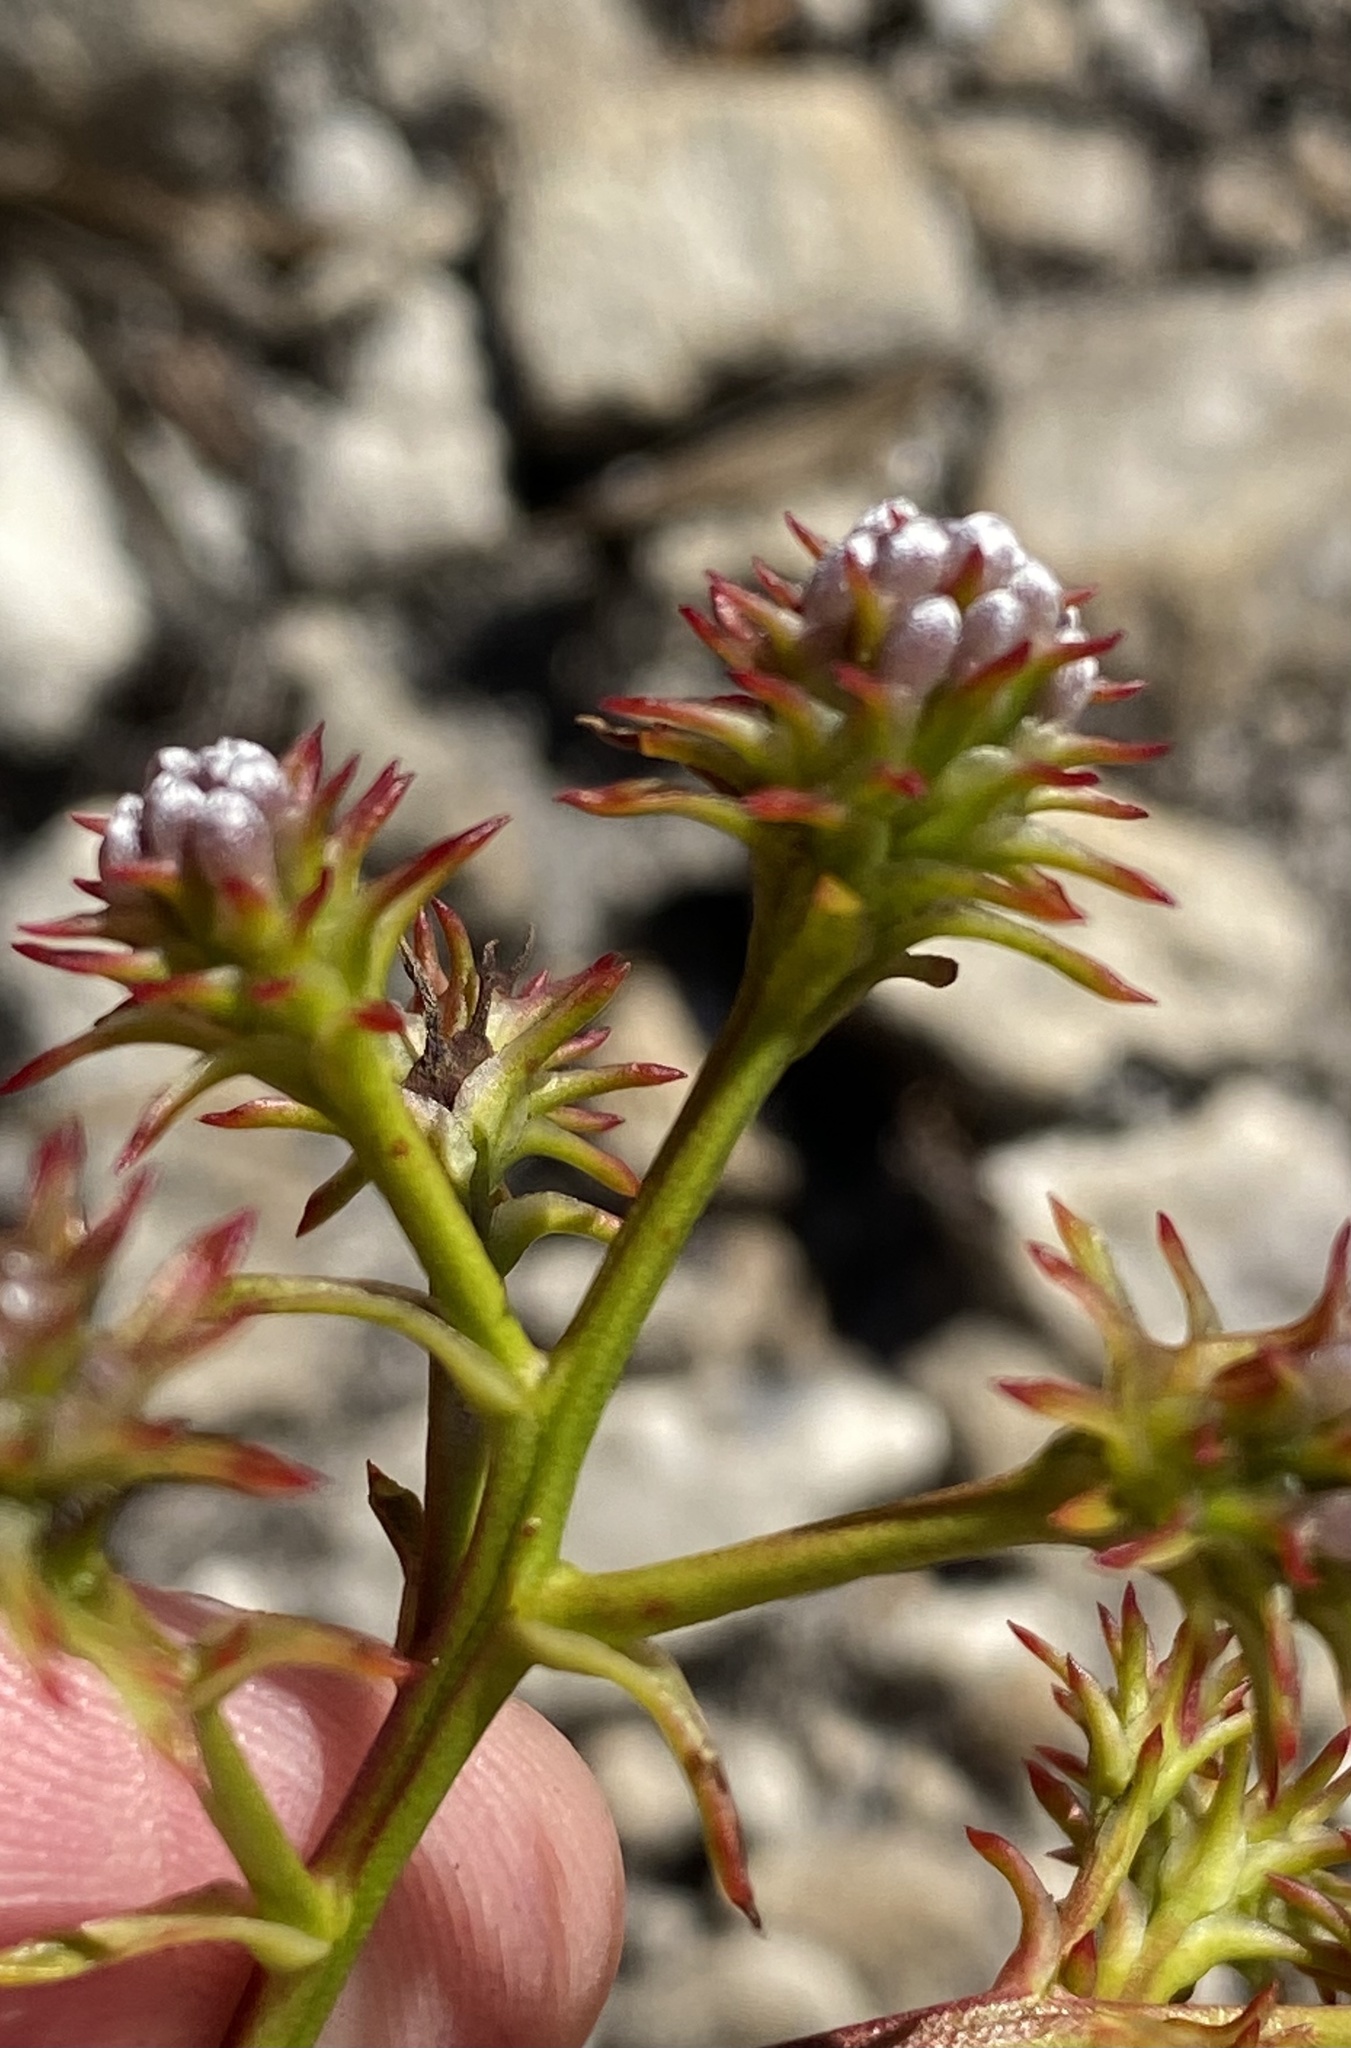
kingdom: Plantae
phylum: Tracheophyta
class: Magnoliopsida
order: Proteales
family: Proteaceae
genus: Serruria
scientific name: Serruria elongata
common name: Long-stalk spiderhead
